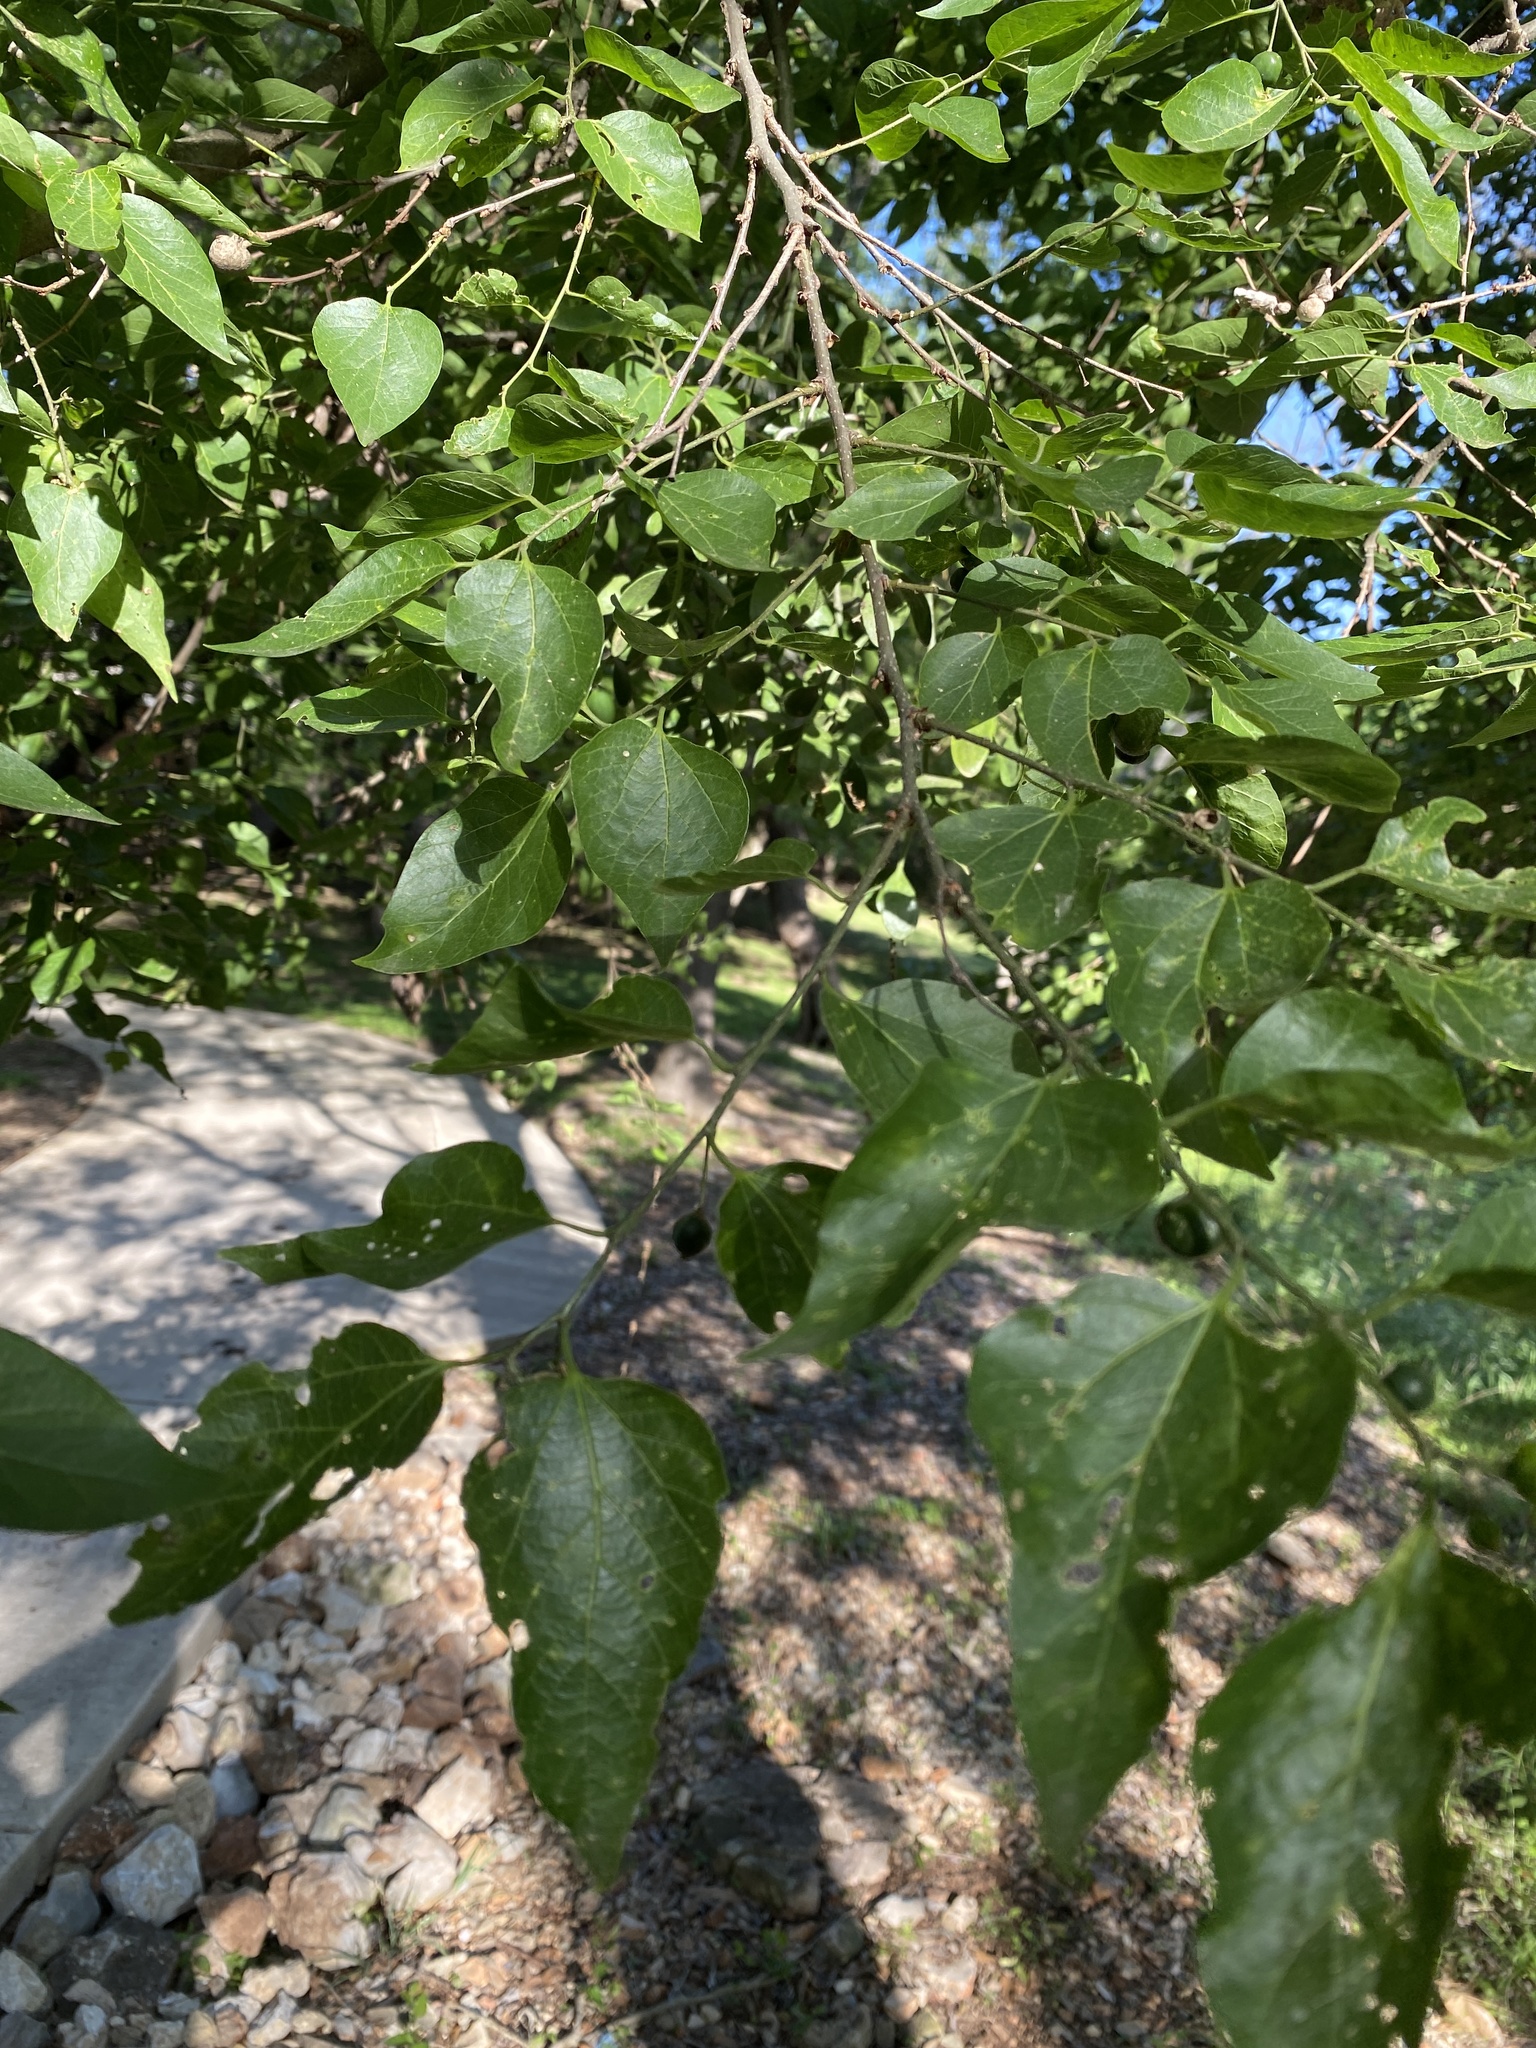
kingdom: Plantae
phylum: Tracheophyta
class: Magnoliopsida
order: Rosales
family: Cannabaceae
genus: Celtis
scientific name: Celtis laevigata
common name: Sugarberry
